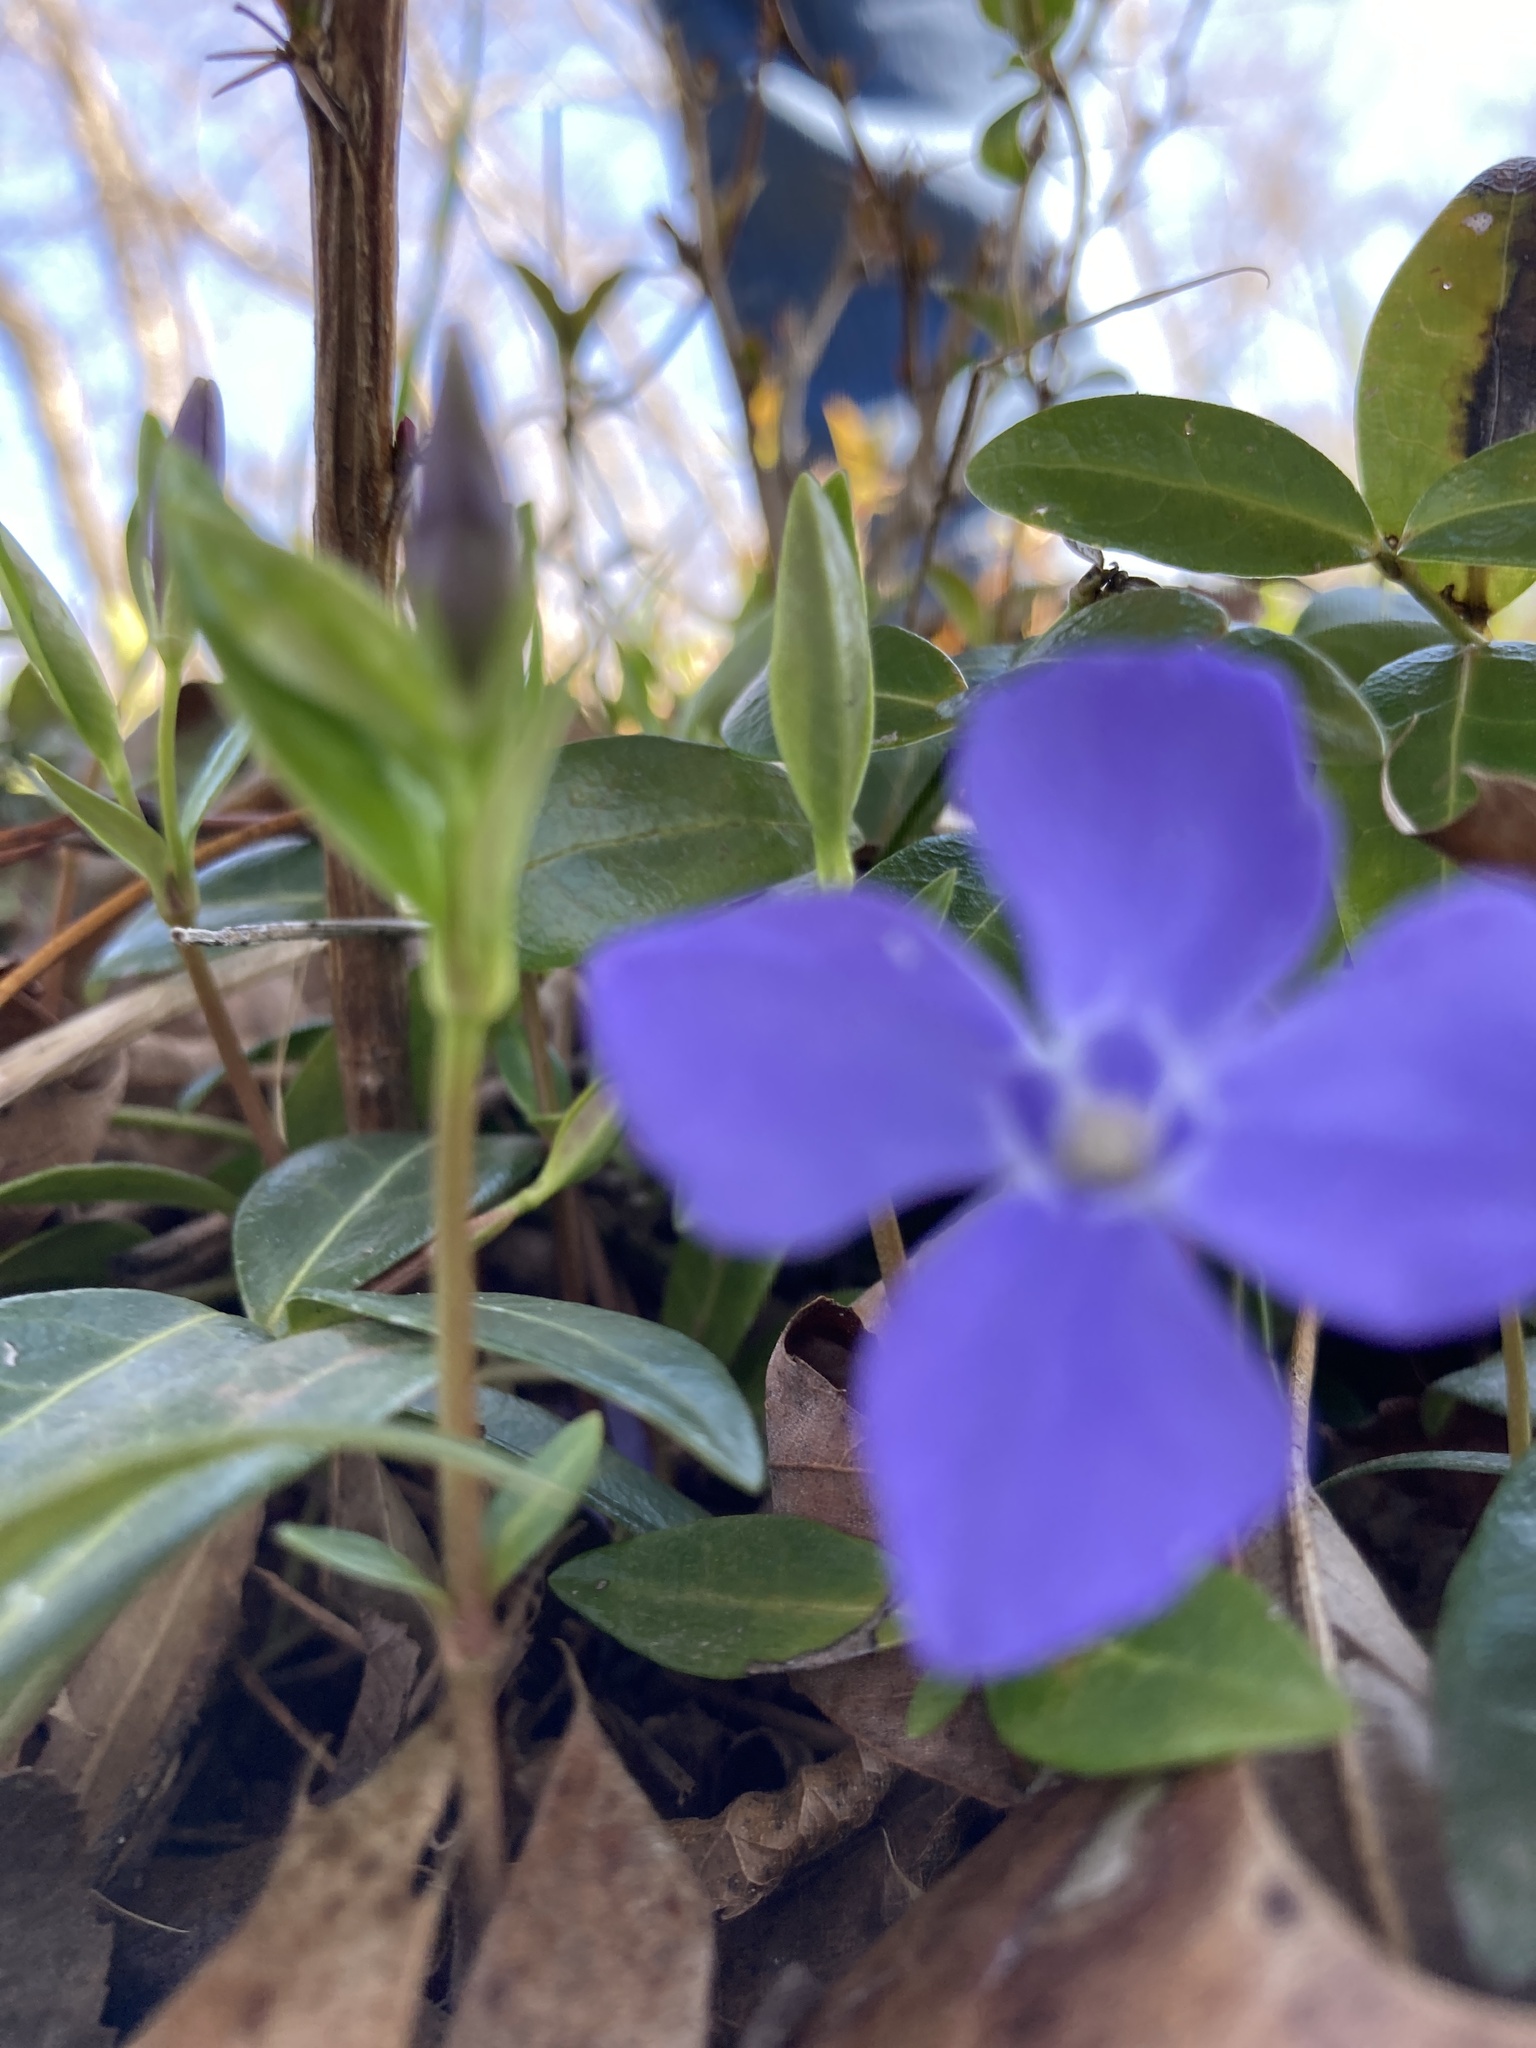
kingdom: Plantae
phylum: Tracheophyta
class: Magnoliopsida
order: Gentianales
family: Apocynaceae
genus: Vinca
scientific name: Vinca minor
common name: Lesser periwinkle
